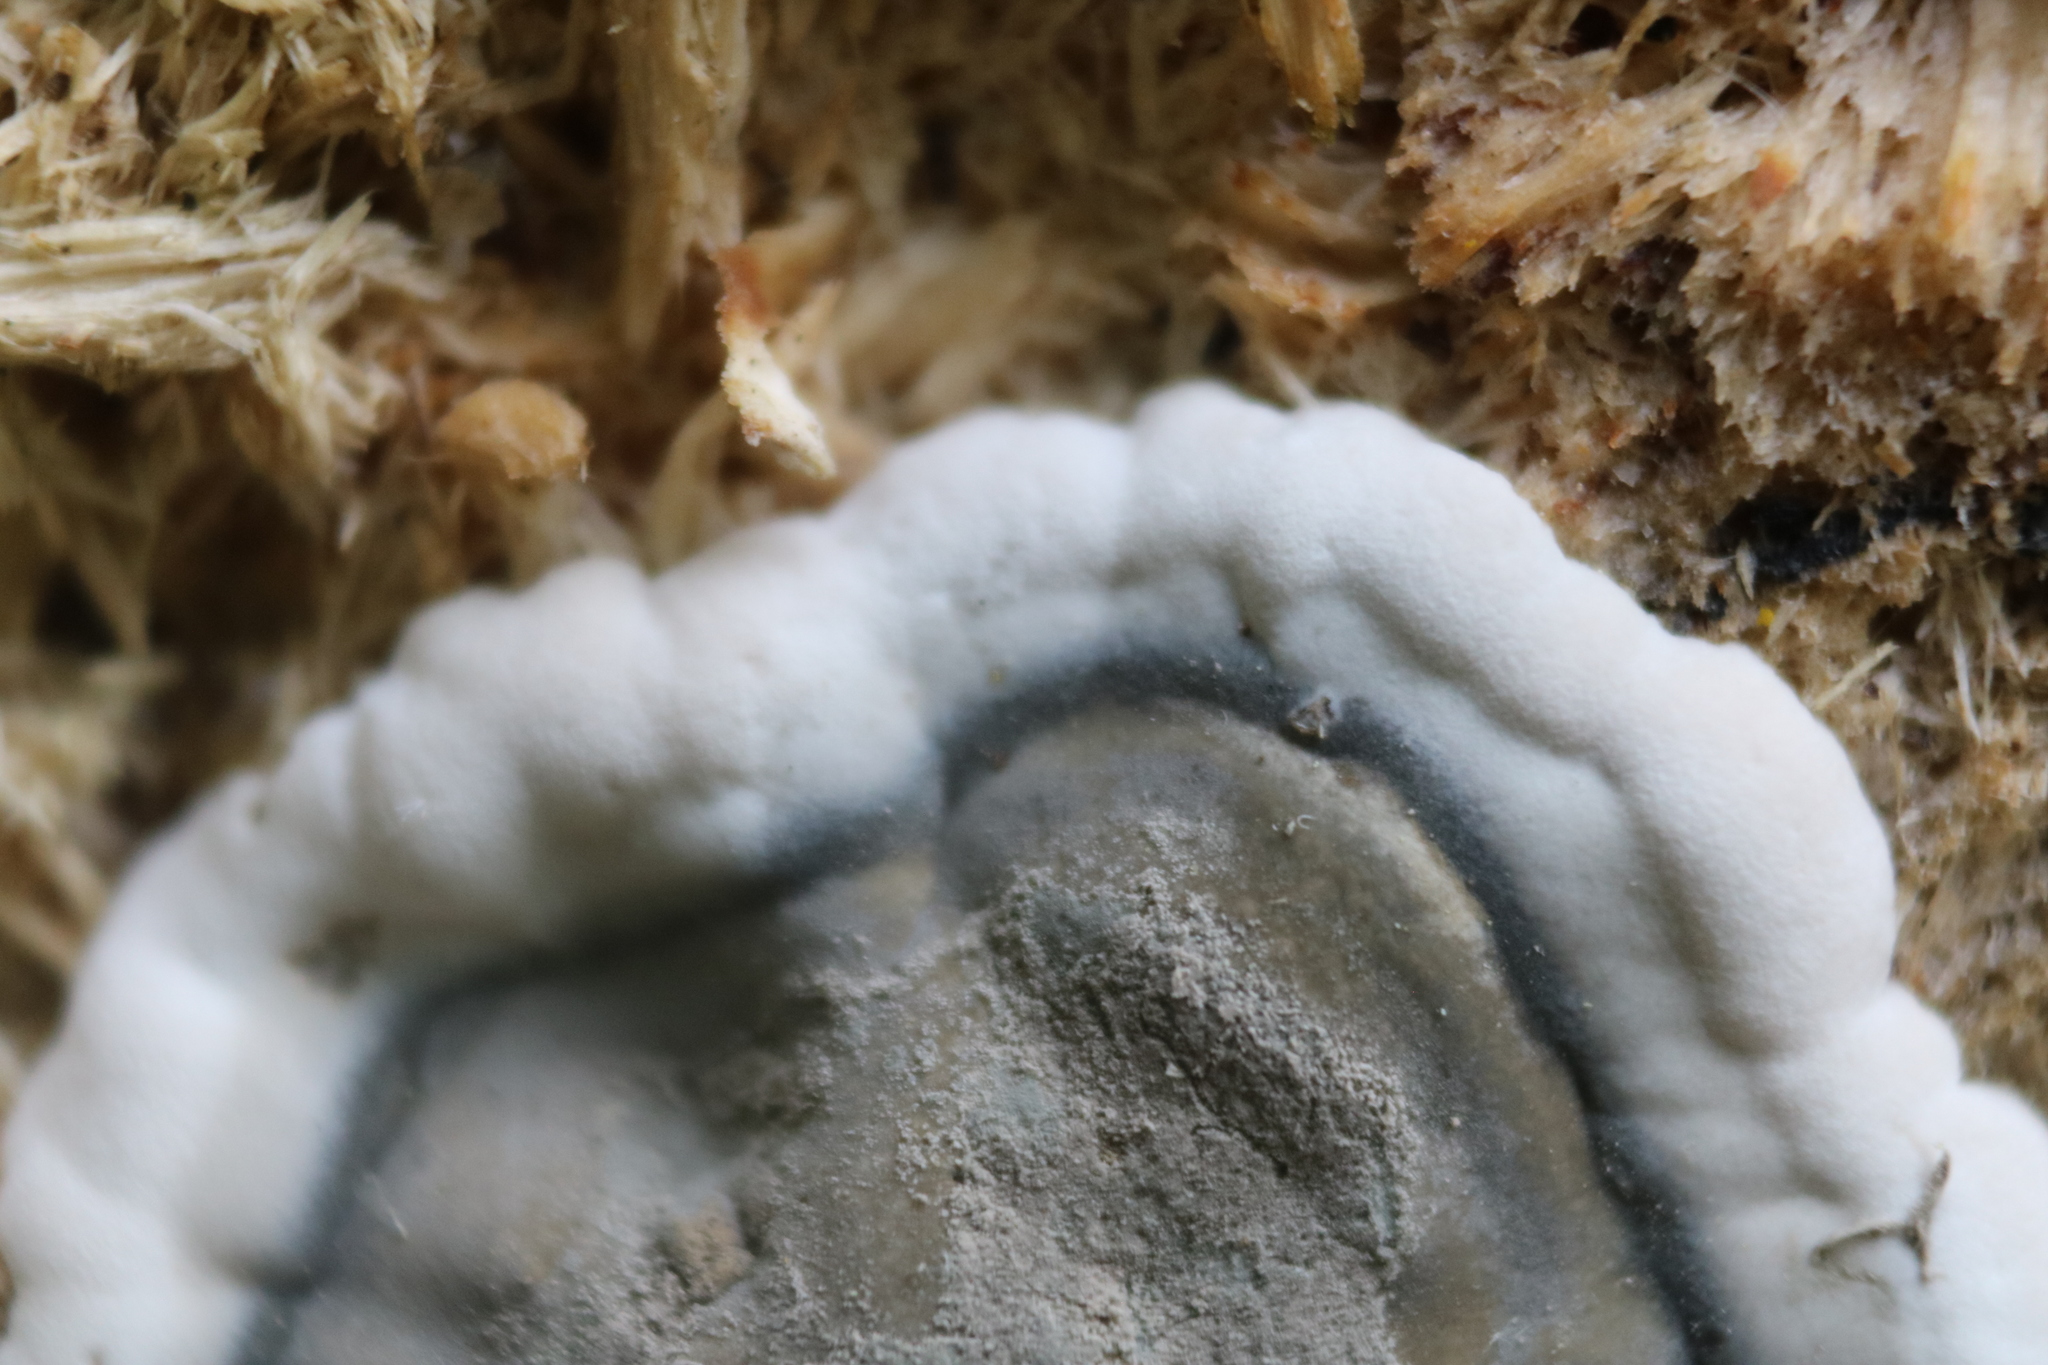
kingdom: Fungi
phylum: Ascomycota
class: Sordariomycetes
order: Xylariales
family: Xylariaceae
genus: Kretzschmaria
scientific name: Kretzschmaria deusta
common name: Brittle cinder
